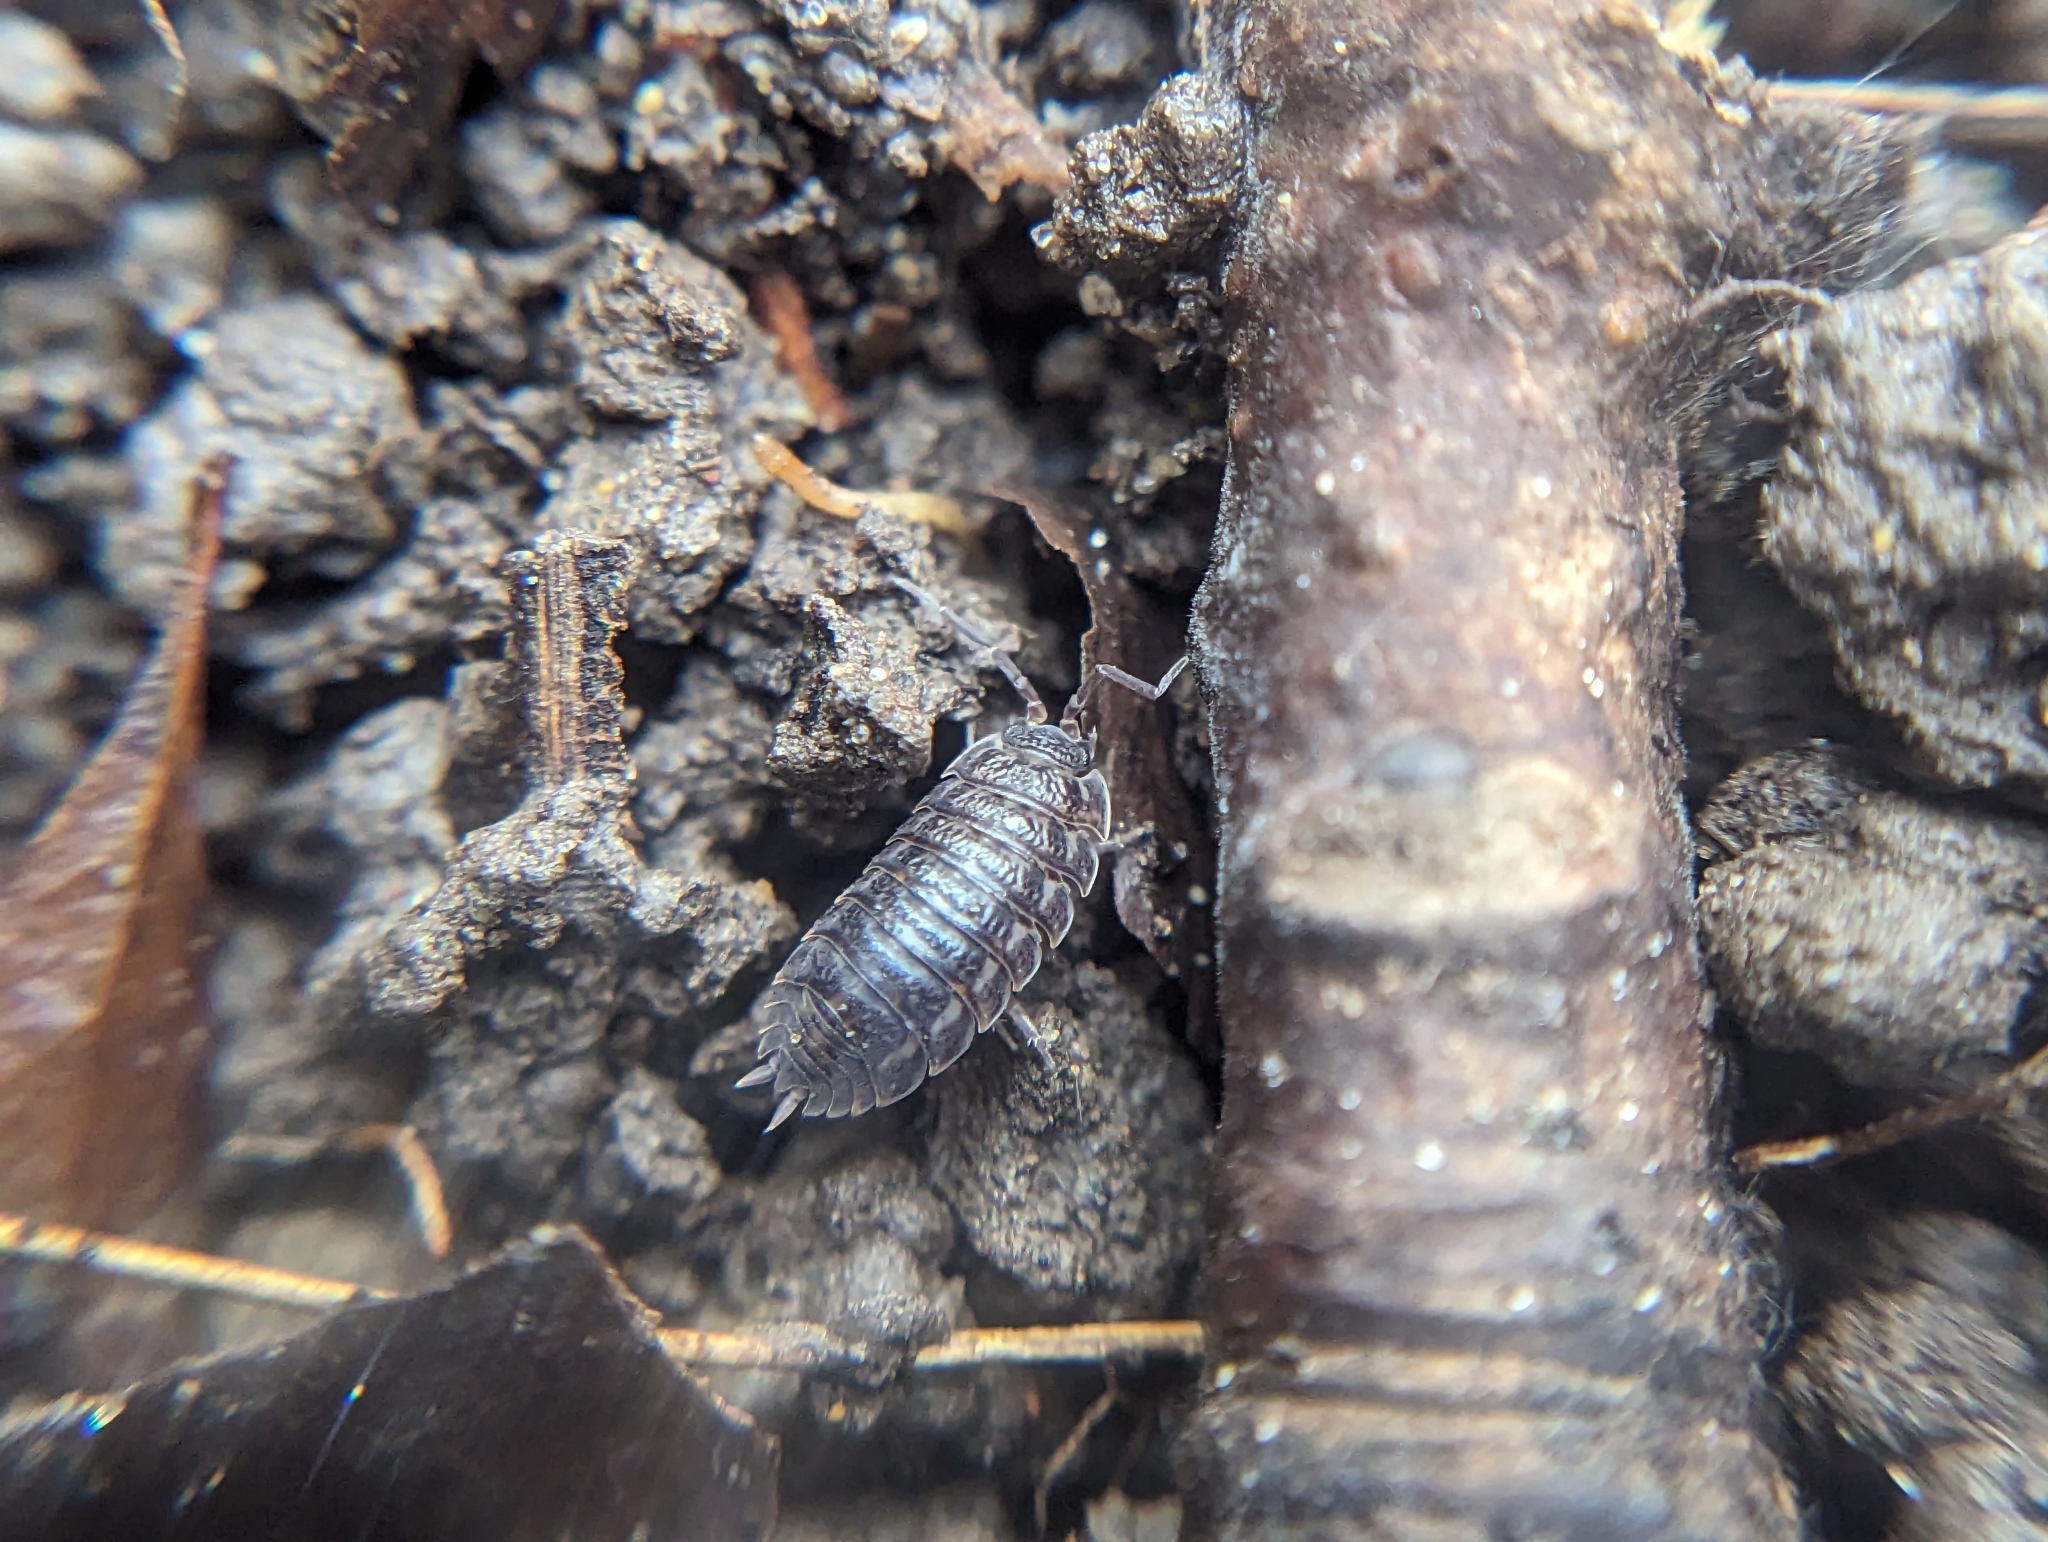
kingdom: Animalia
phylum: Arthropoda
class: Malacostraca
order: Isopoda
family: Trachelipodidae
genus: Trachelipus
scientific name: Trachelipus rathkii
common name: Isopod
